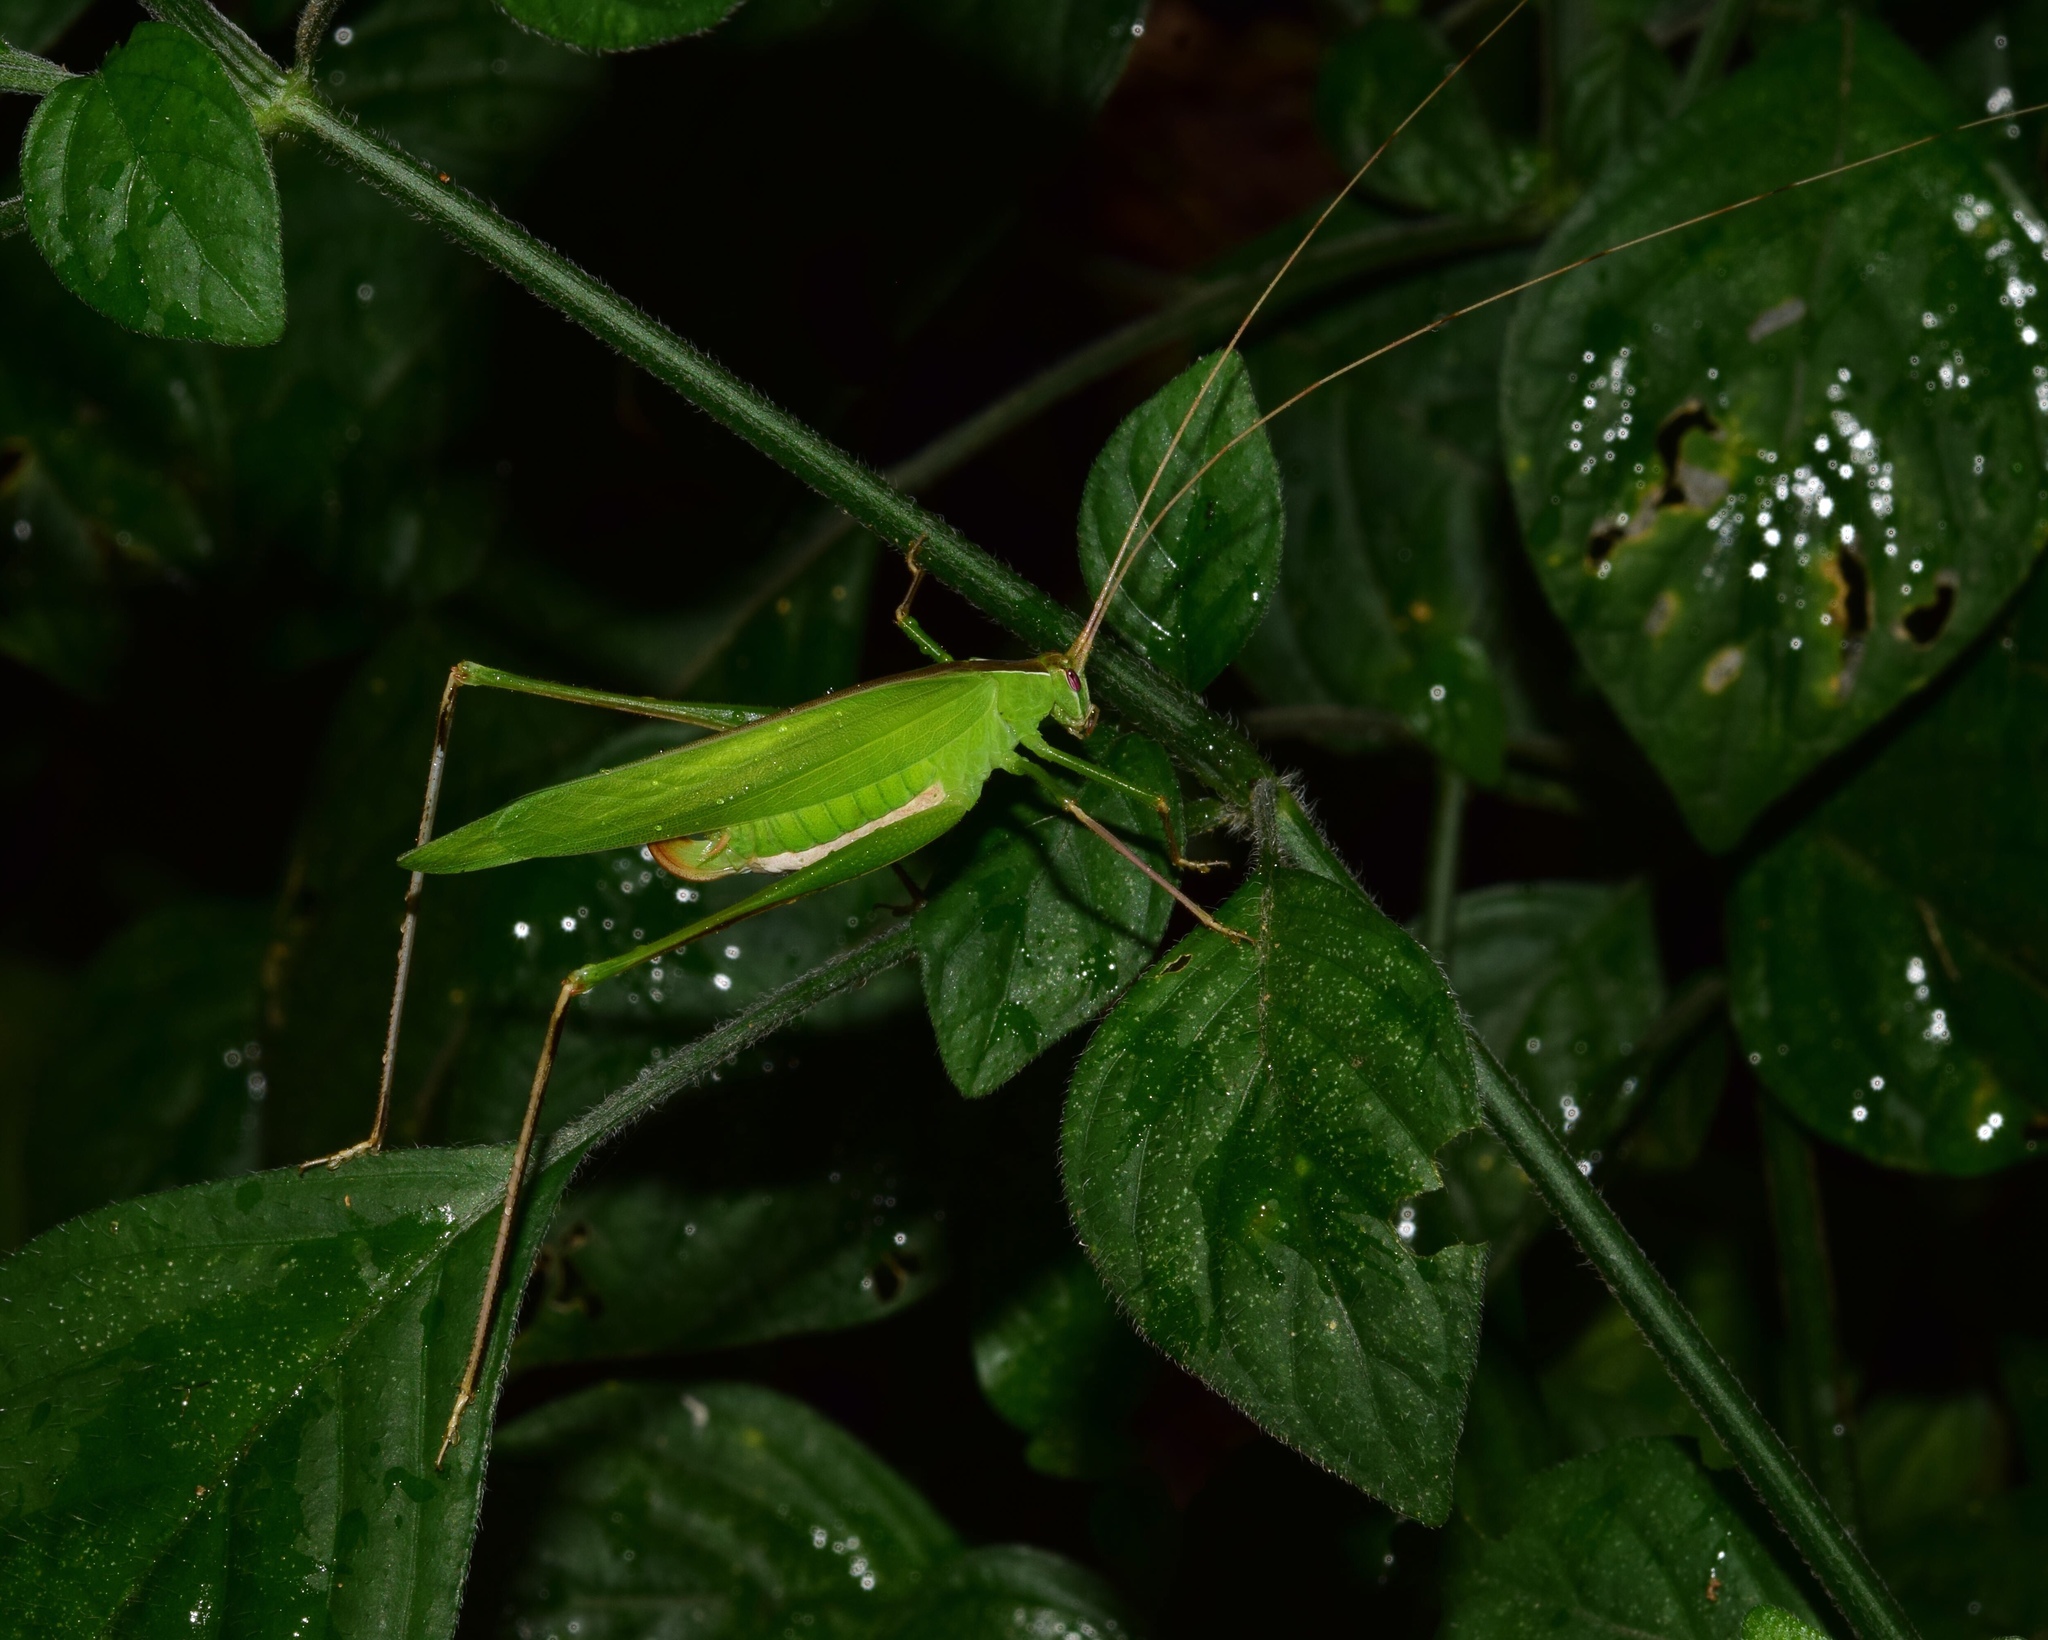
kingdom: Animalia
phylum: Arthropoda
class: Insecta
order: Orthoptera
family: Tettigoniidae
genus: Tylopsis
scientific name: Tylopsis continua
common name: Common grass katydid
